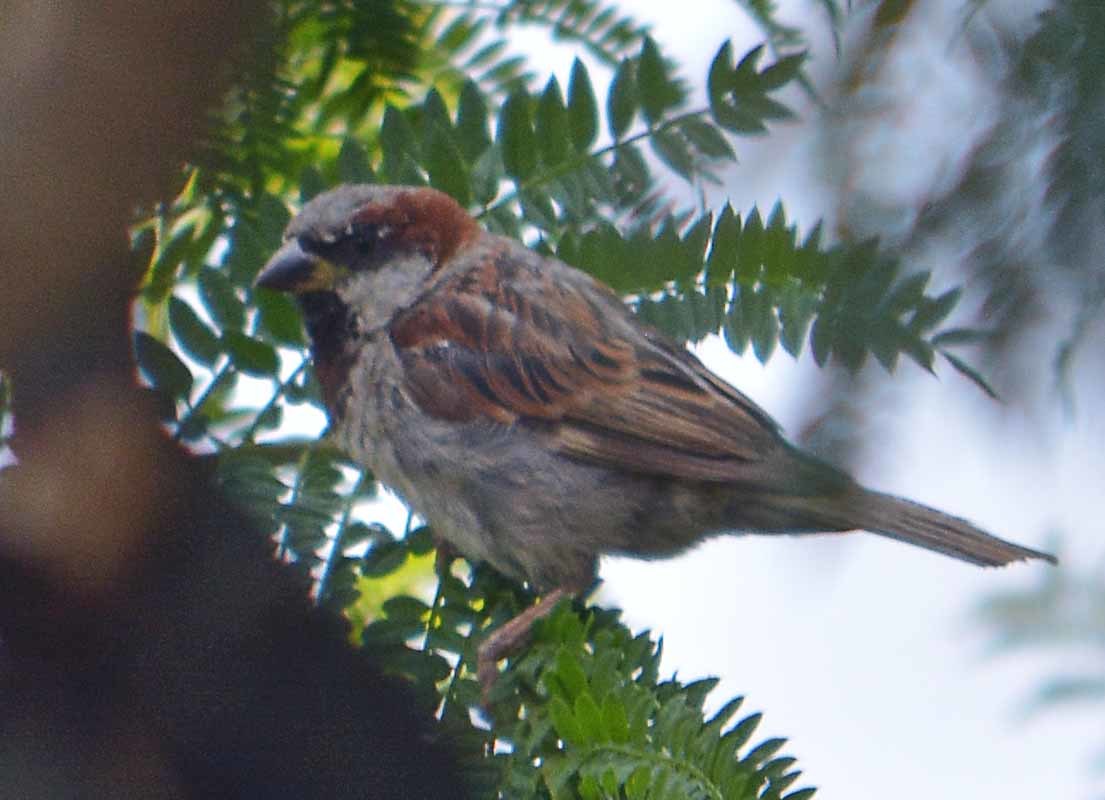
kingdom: Animalia
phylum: Chordata
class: Aves
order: Passeriformes
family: Passeridae
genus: Passer
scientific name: Passer domesticus
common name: House sparrow
